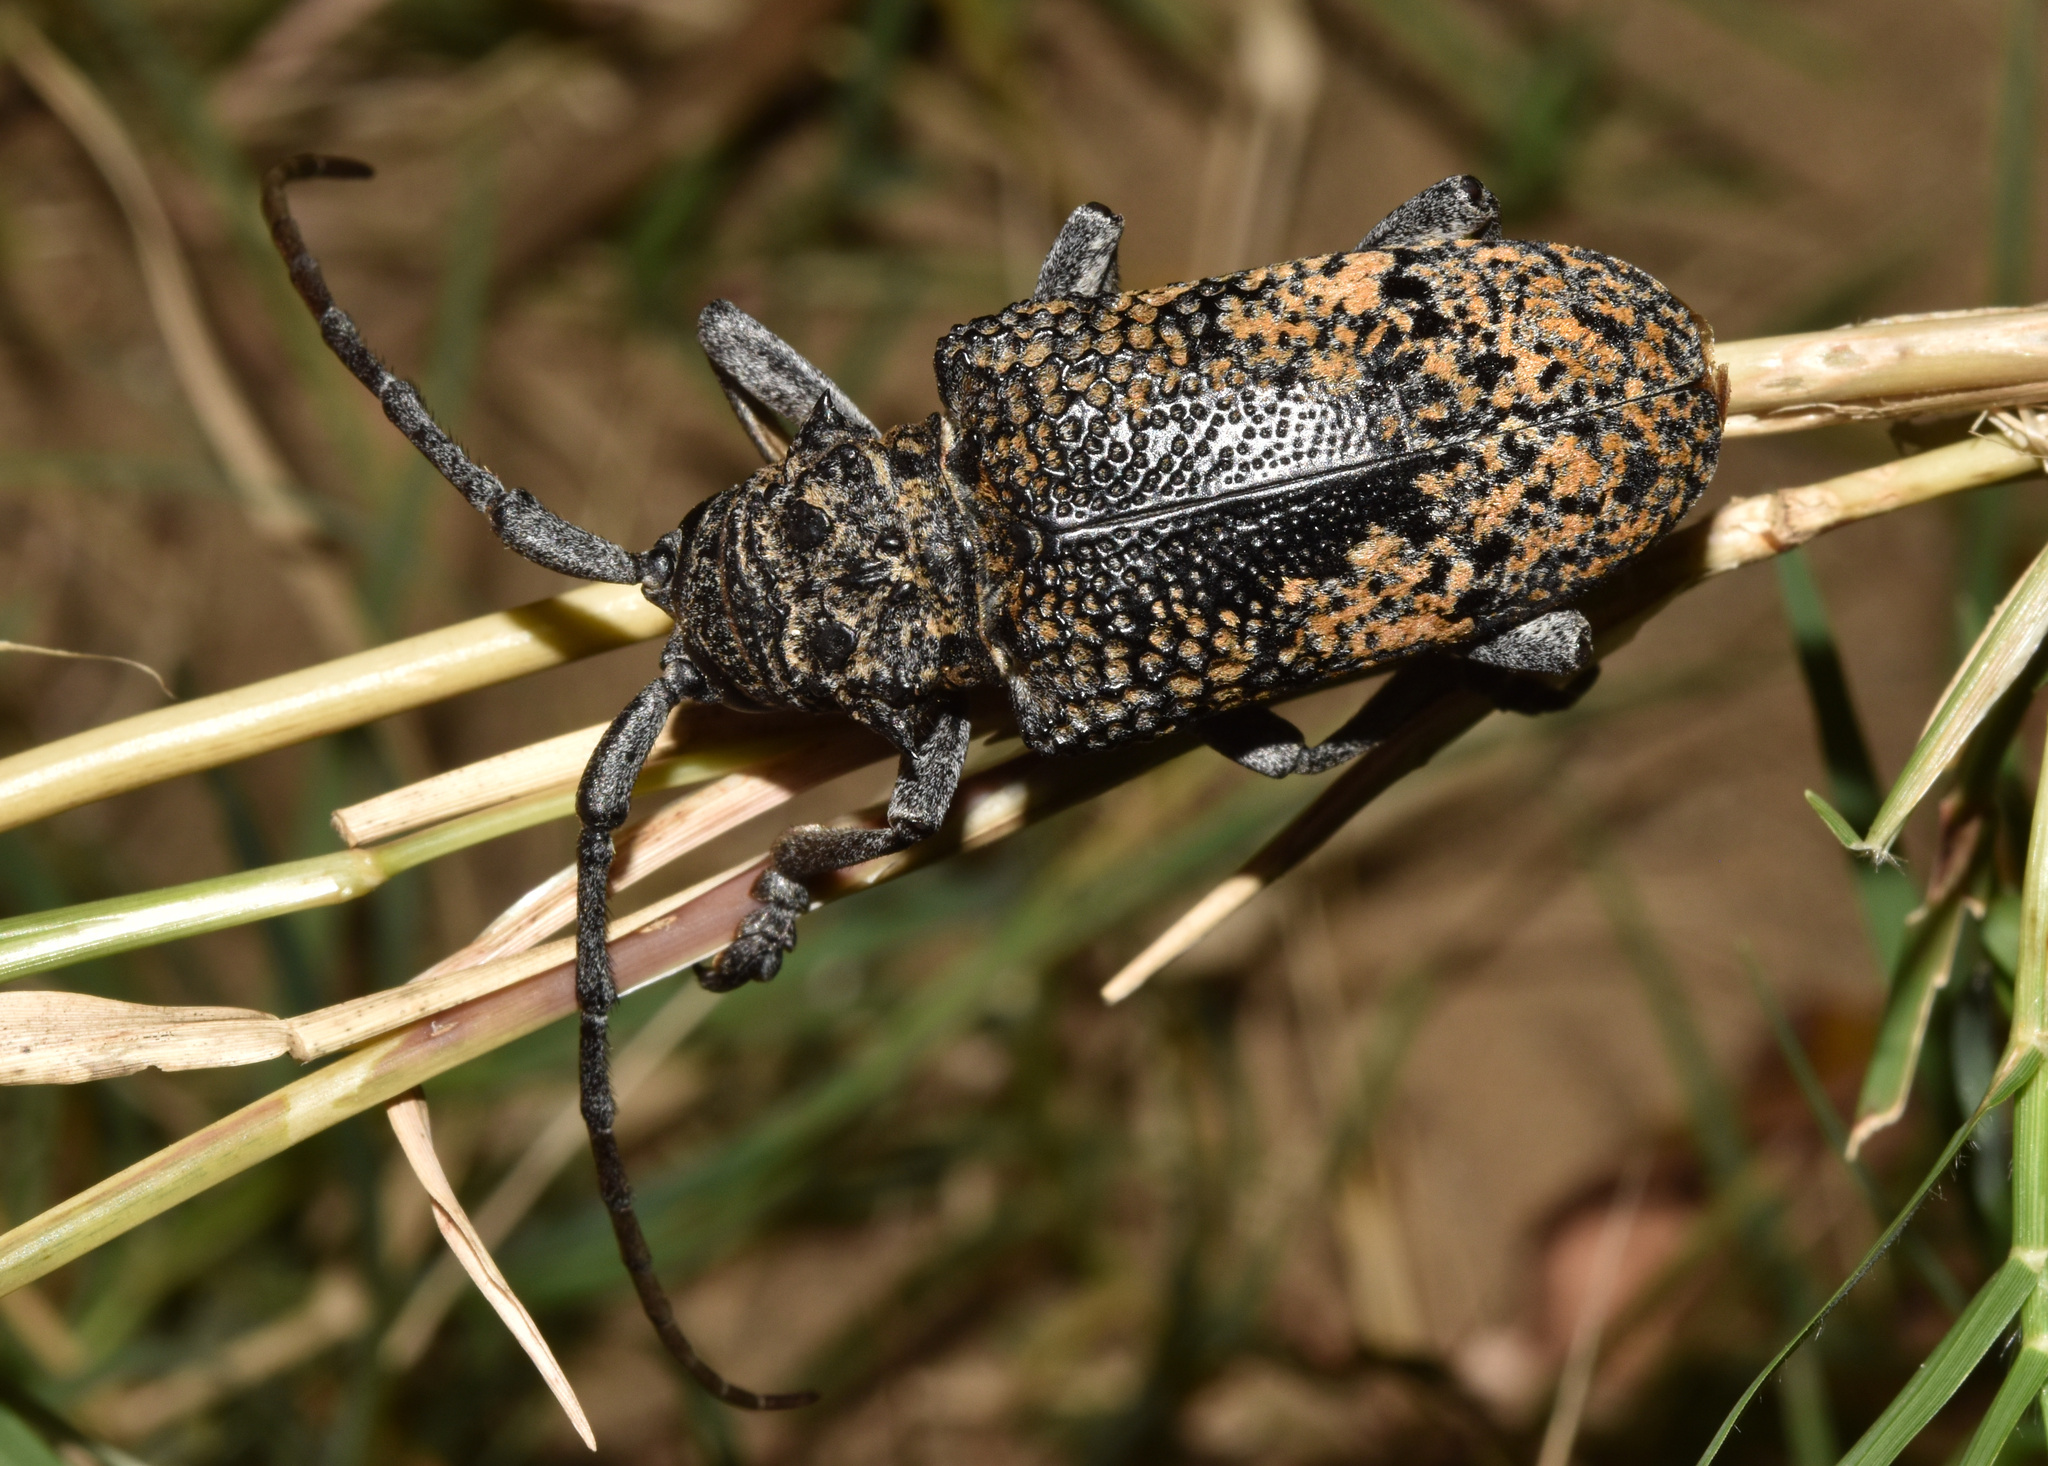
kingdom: Animalia
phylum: Arthropoda
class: Insecta
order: Coleoptera
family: Cerambycidae
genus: Phryneta
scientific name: Phryneta spinator
